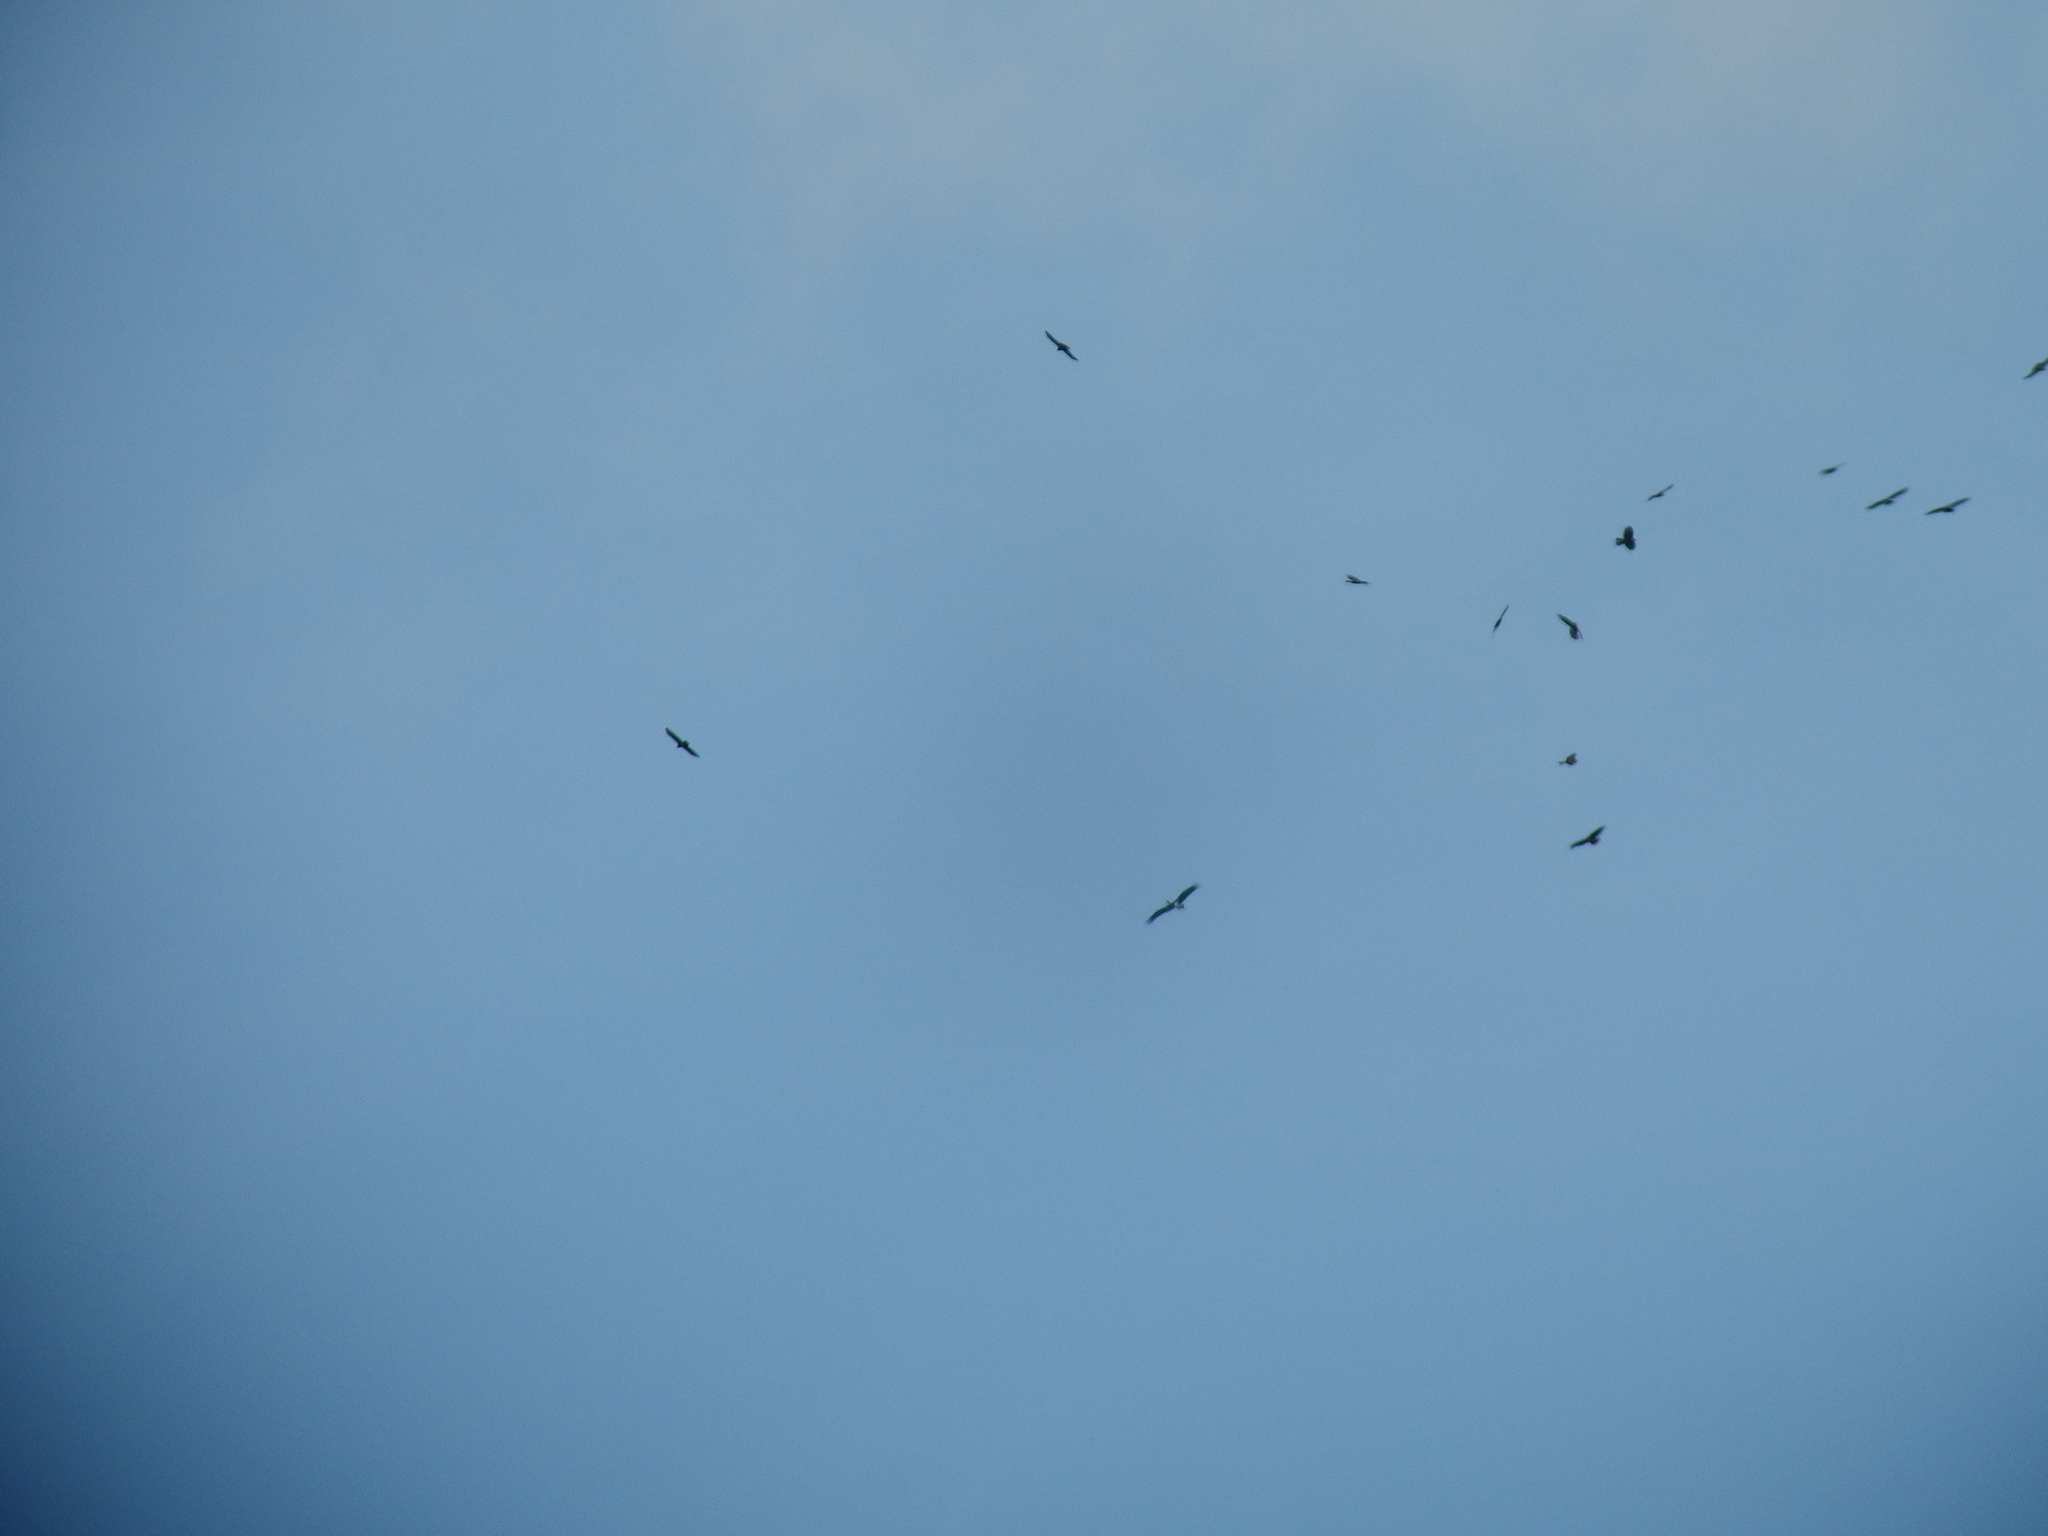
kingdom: Animalia
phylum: Chordata
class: Aves
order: Ciconiiformes
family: Ciconiidae
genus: Ciconia
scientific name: Ciconia nigra
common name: Black stork
